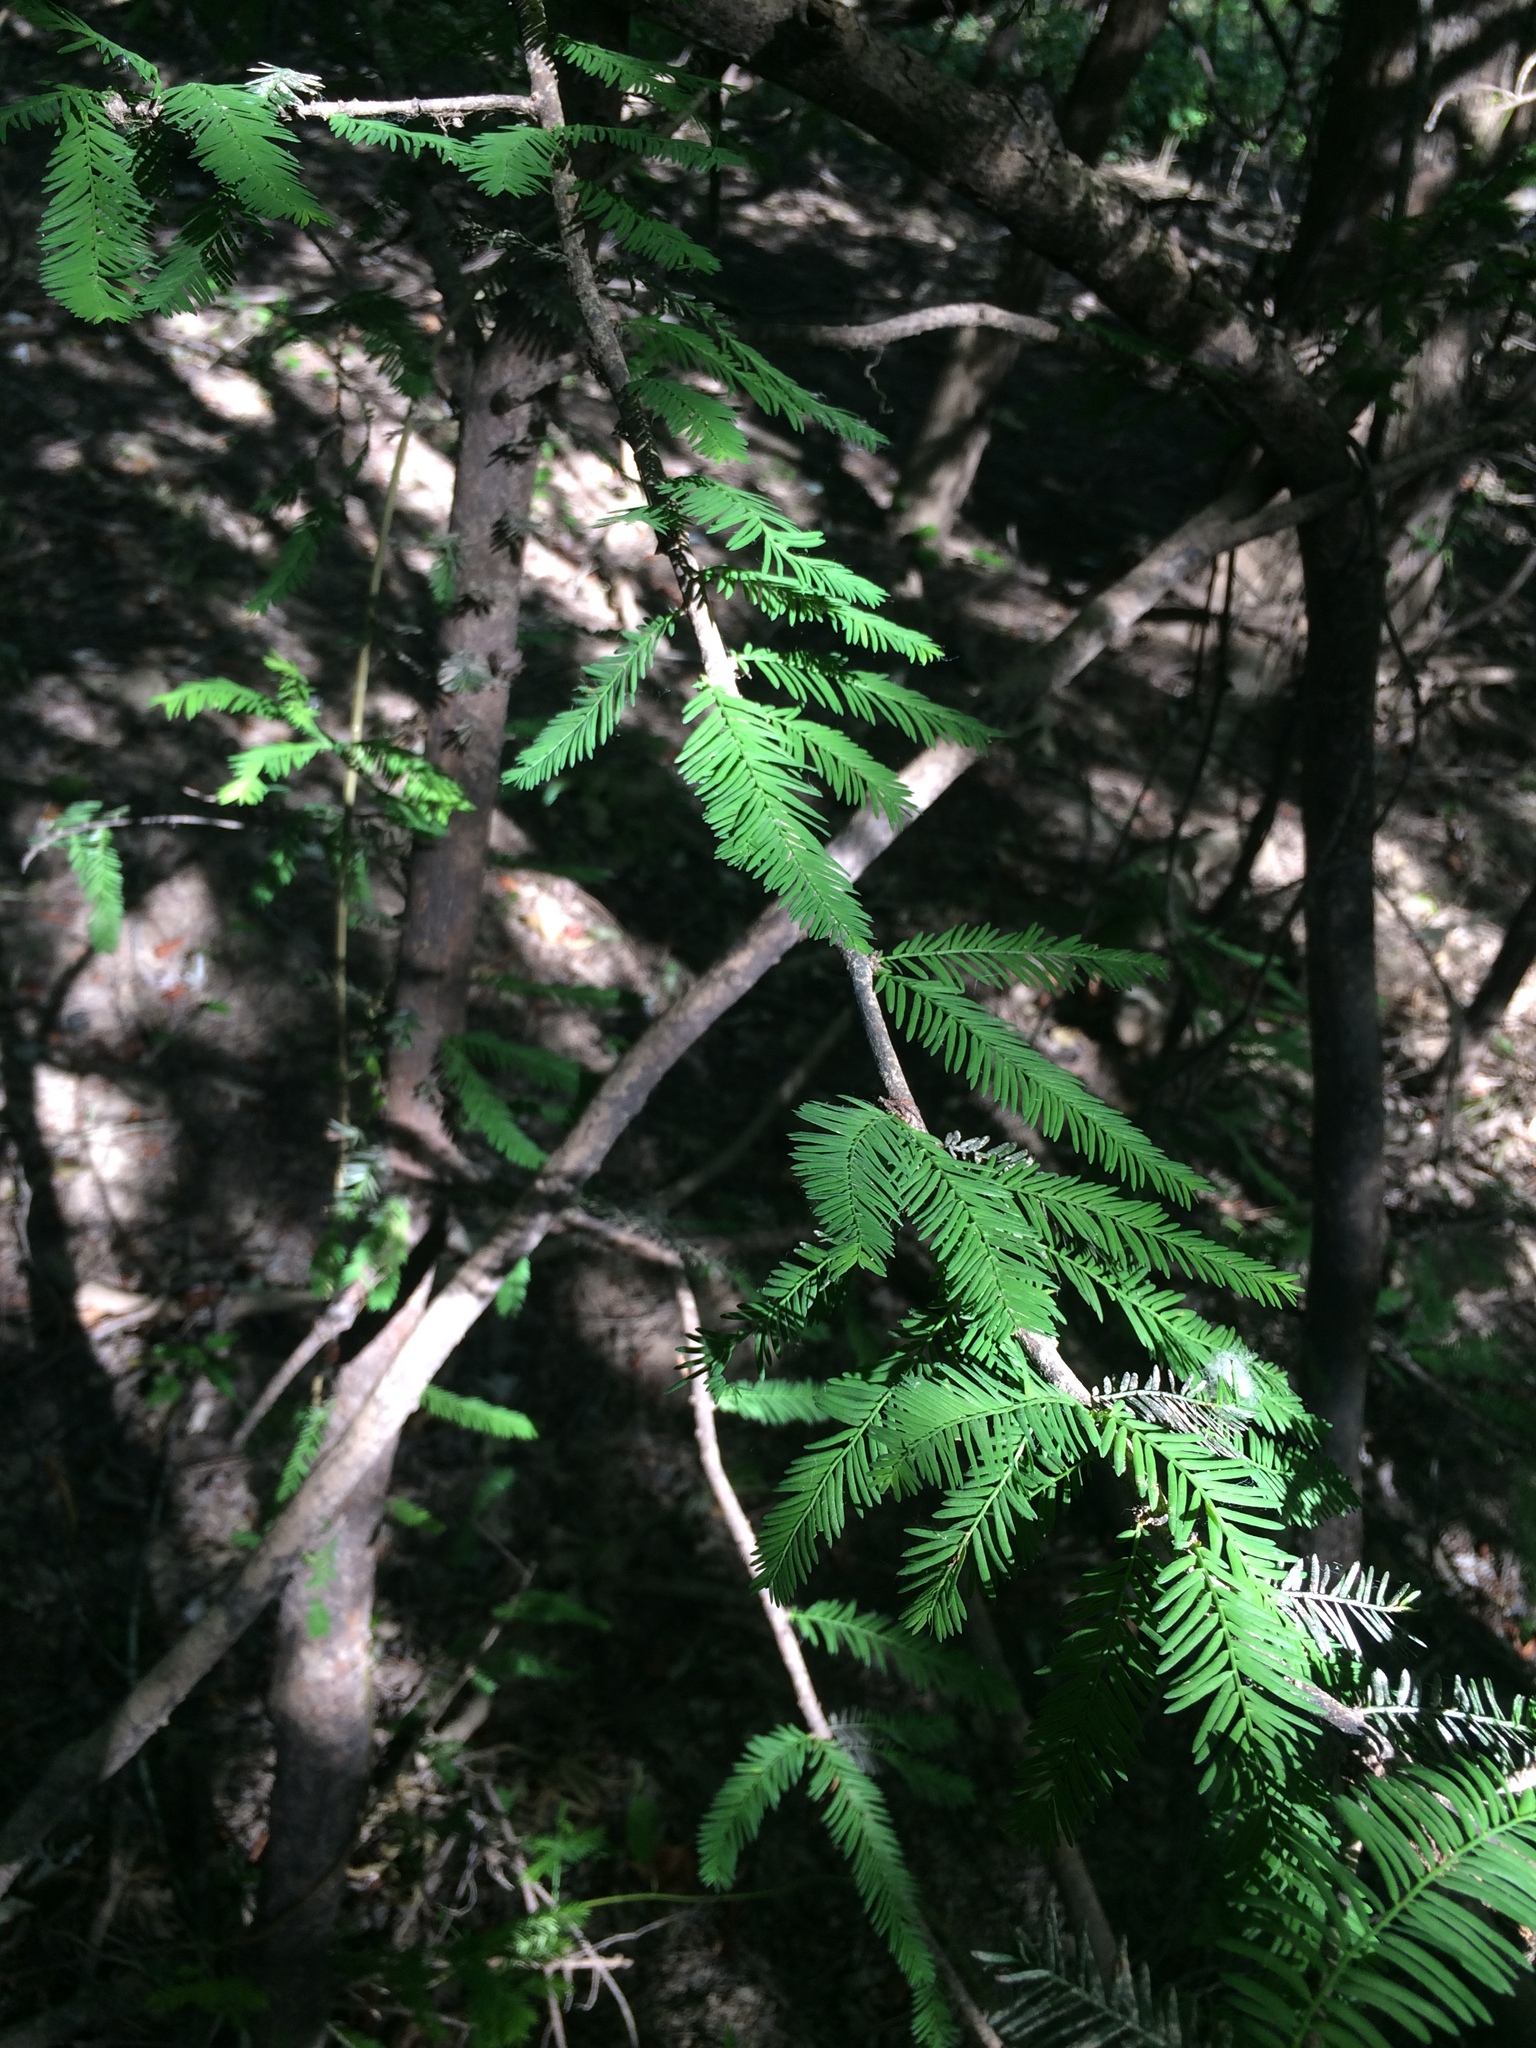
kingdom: Plantae
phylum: Tracheophyta
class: Pinopsida
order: Pinales
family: Cupressaceae
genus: Taxodium
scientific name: Taxodium distichum
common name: Bald cypress
